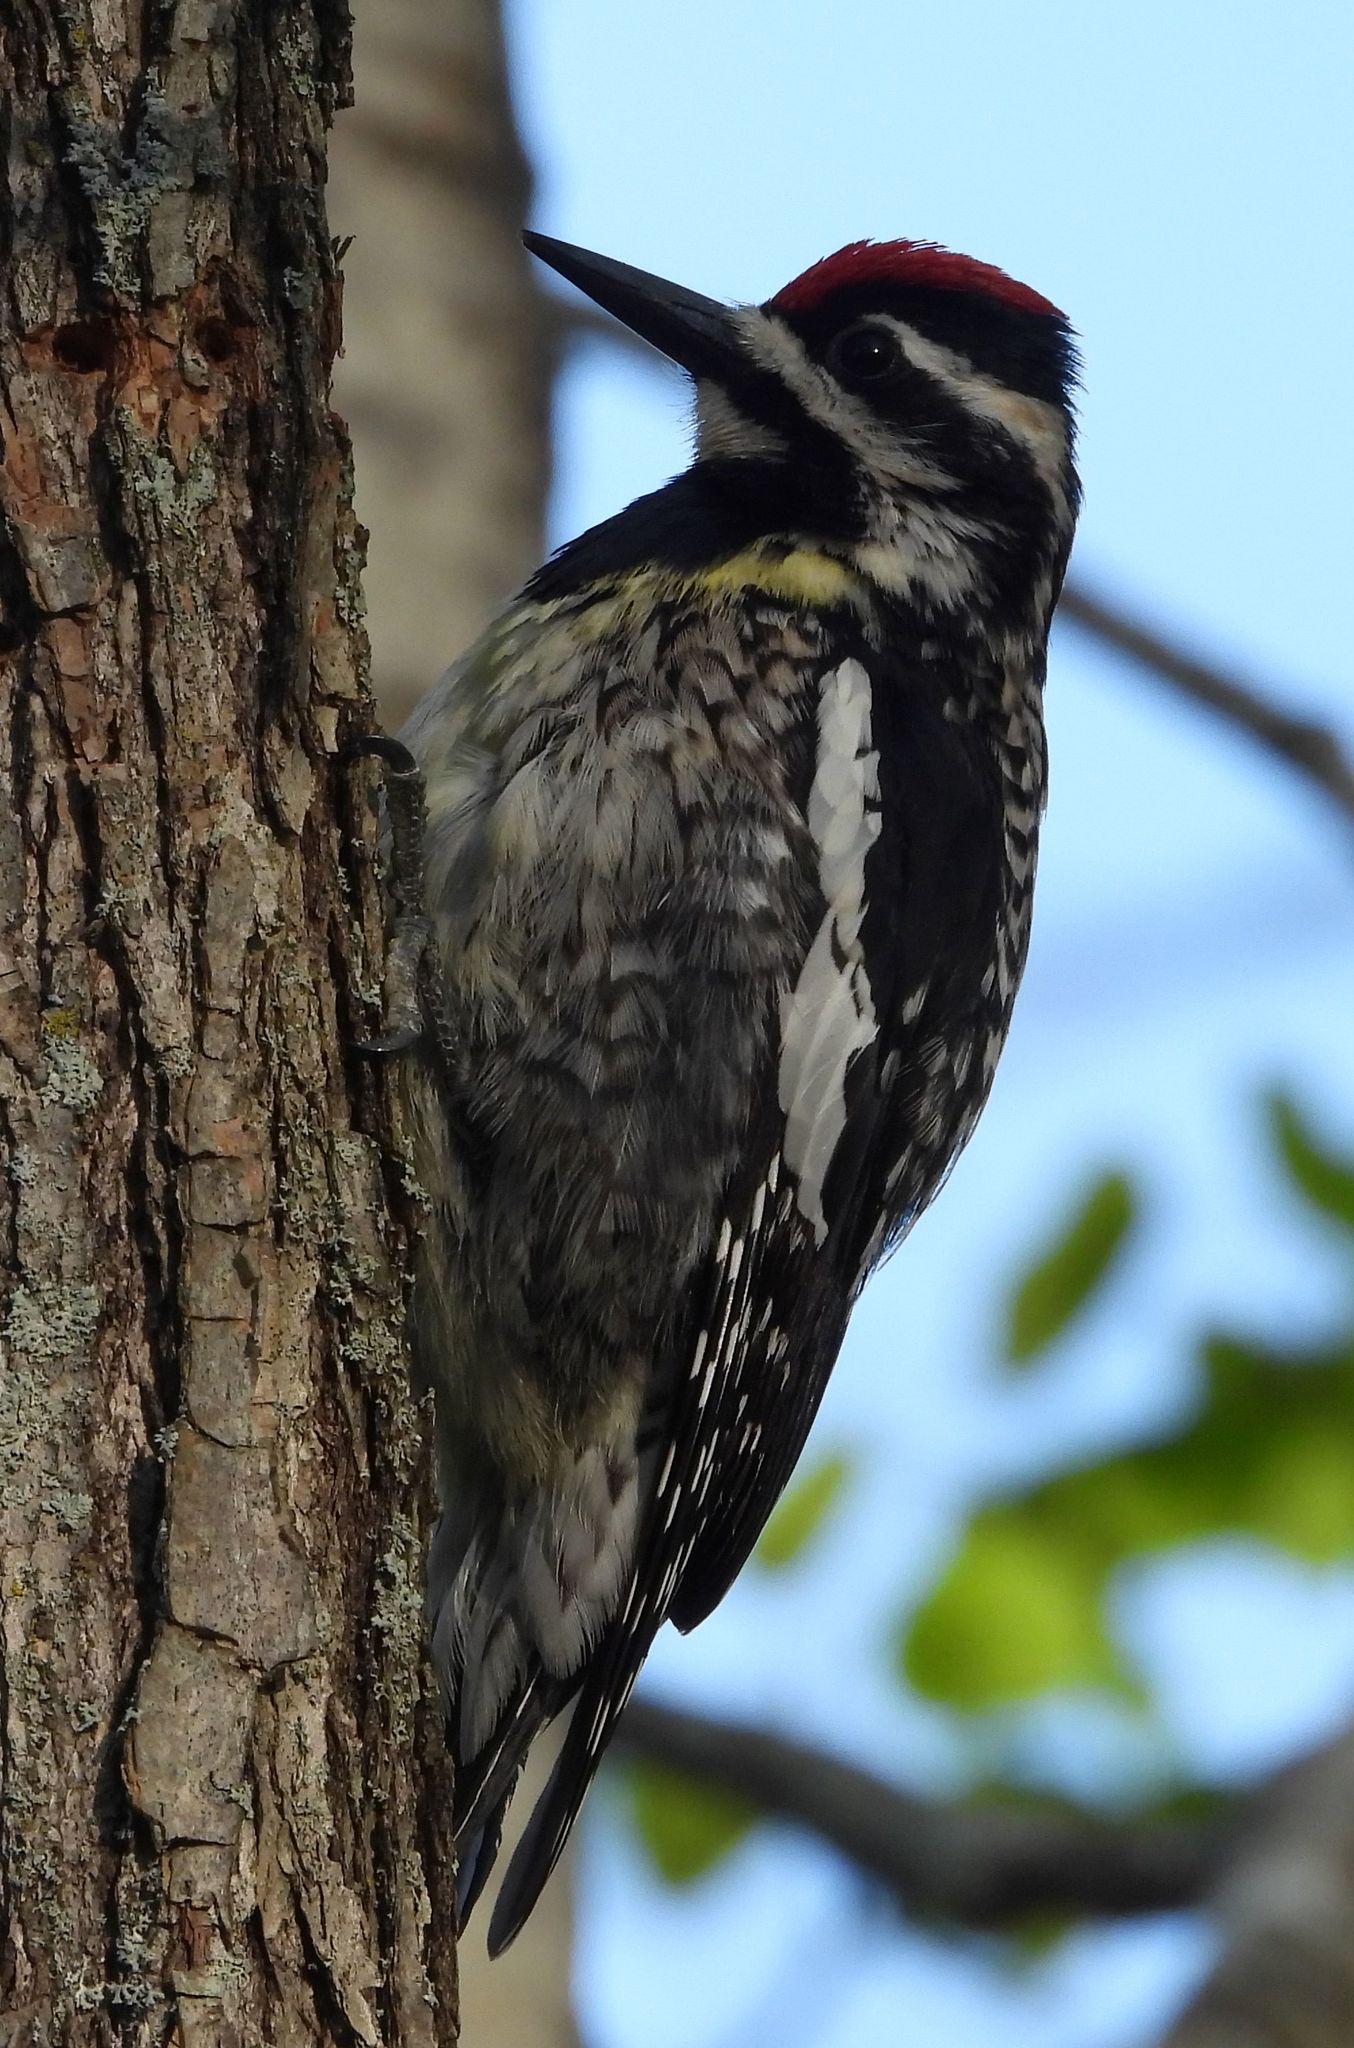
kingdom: Animalia
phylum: Chordata
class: Aves
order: Piciformes
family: Picidae
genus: Sphyrapicus
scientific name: Sphyrapicus varius
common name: Yellow-bellied sapsucker
